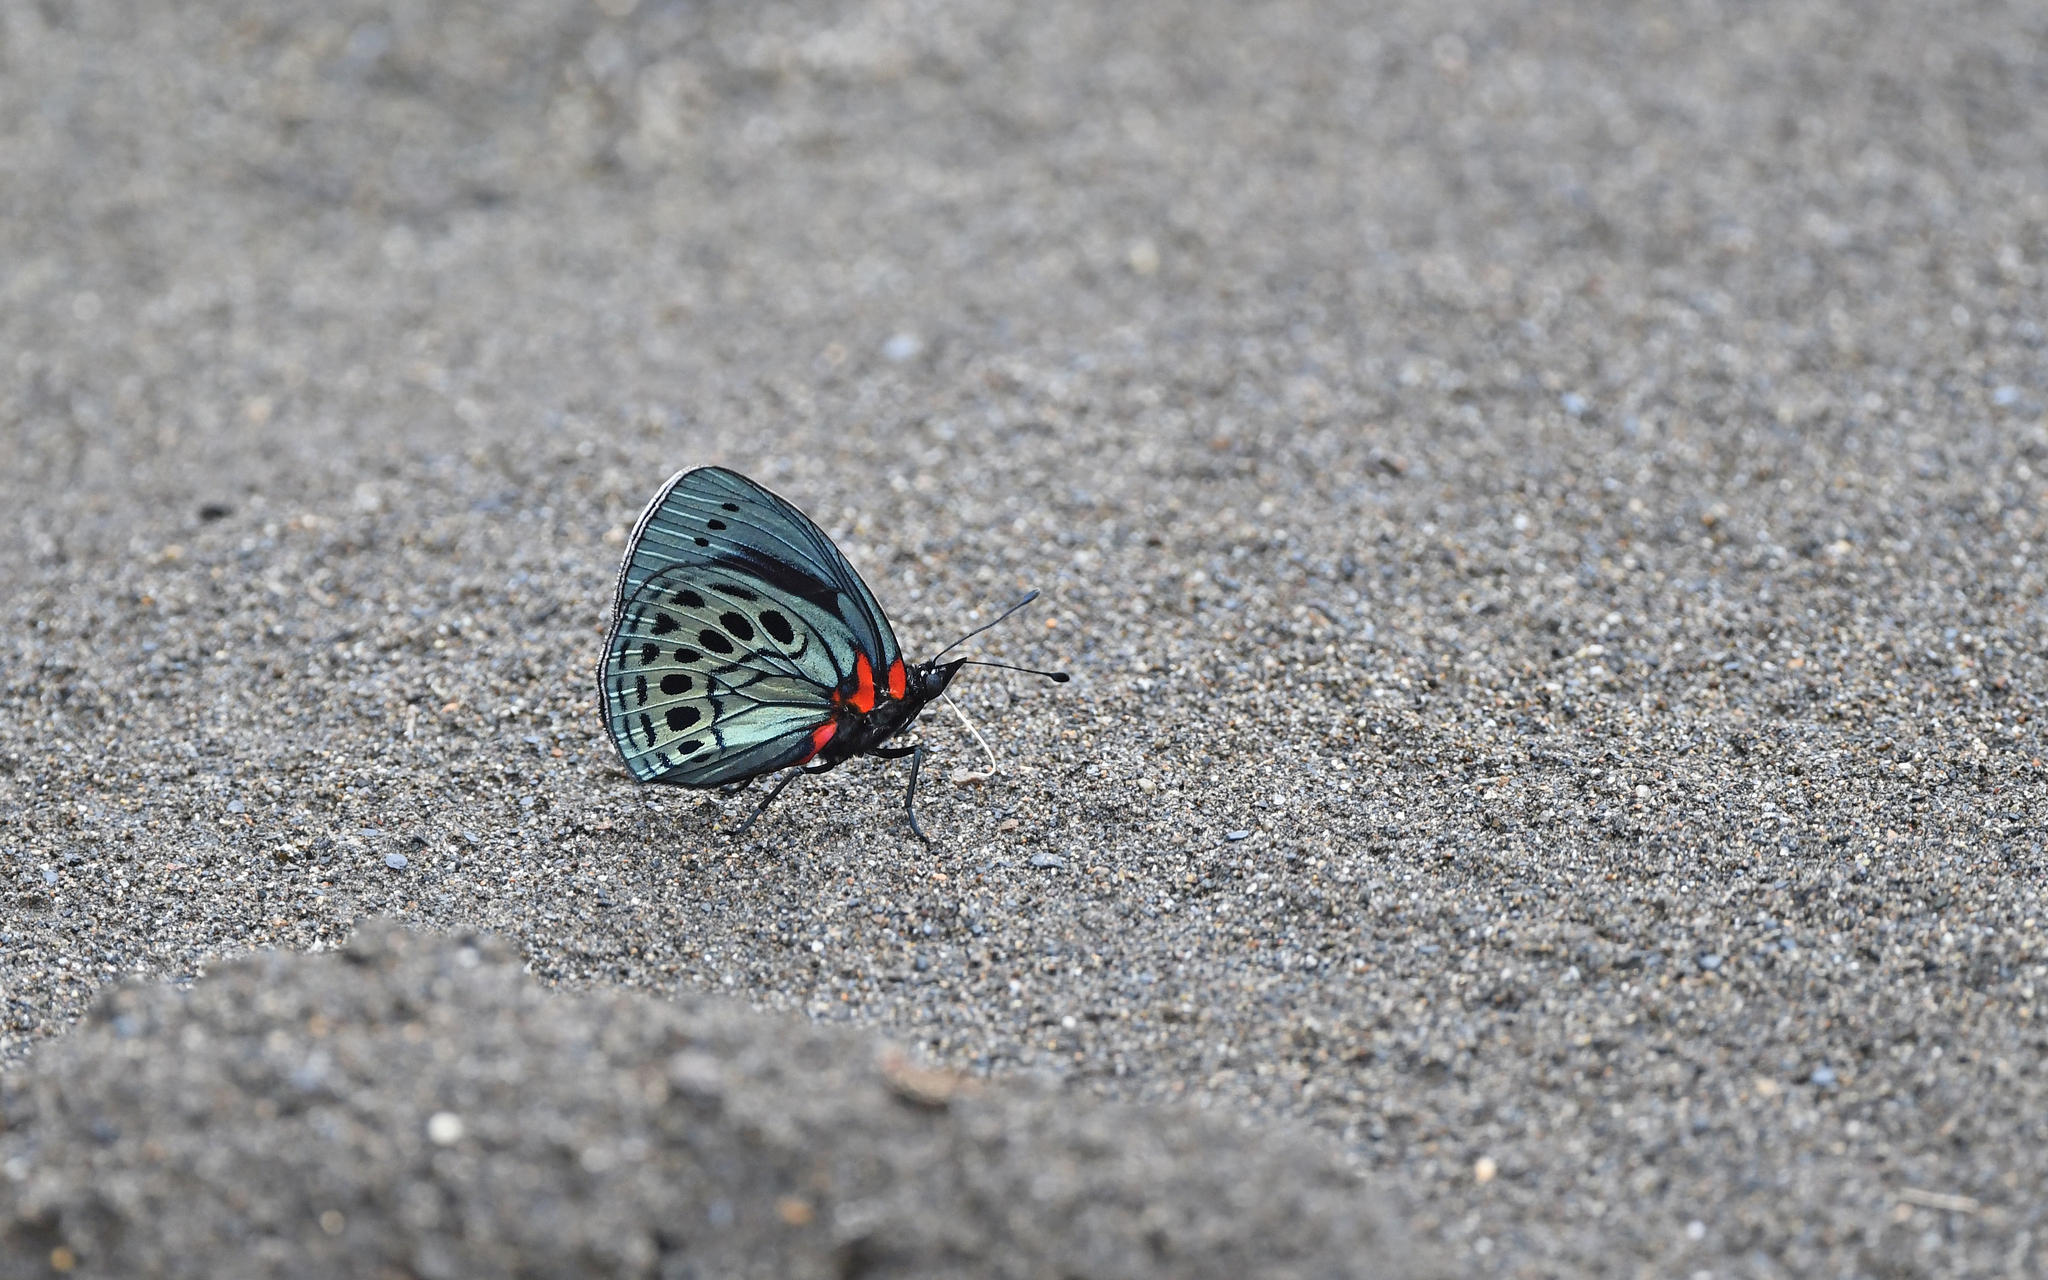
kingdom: Animalia
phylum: Arthropoda
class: Insecta
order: Lepidoptera
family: Nymphalidae
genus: Asterope
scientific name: Asterope leprieuri
